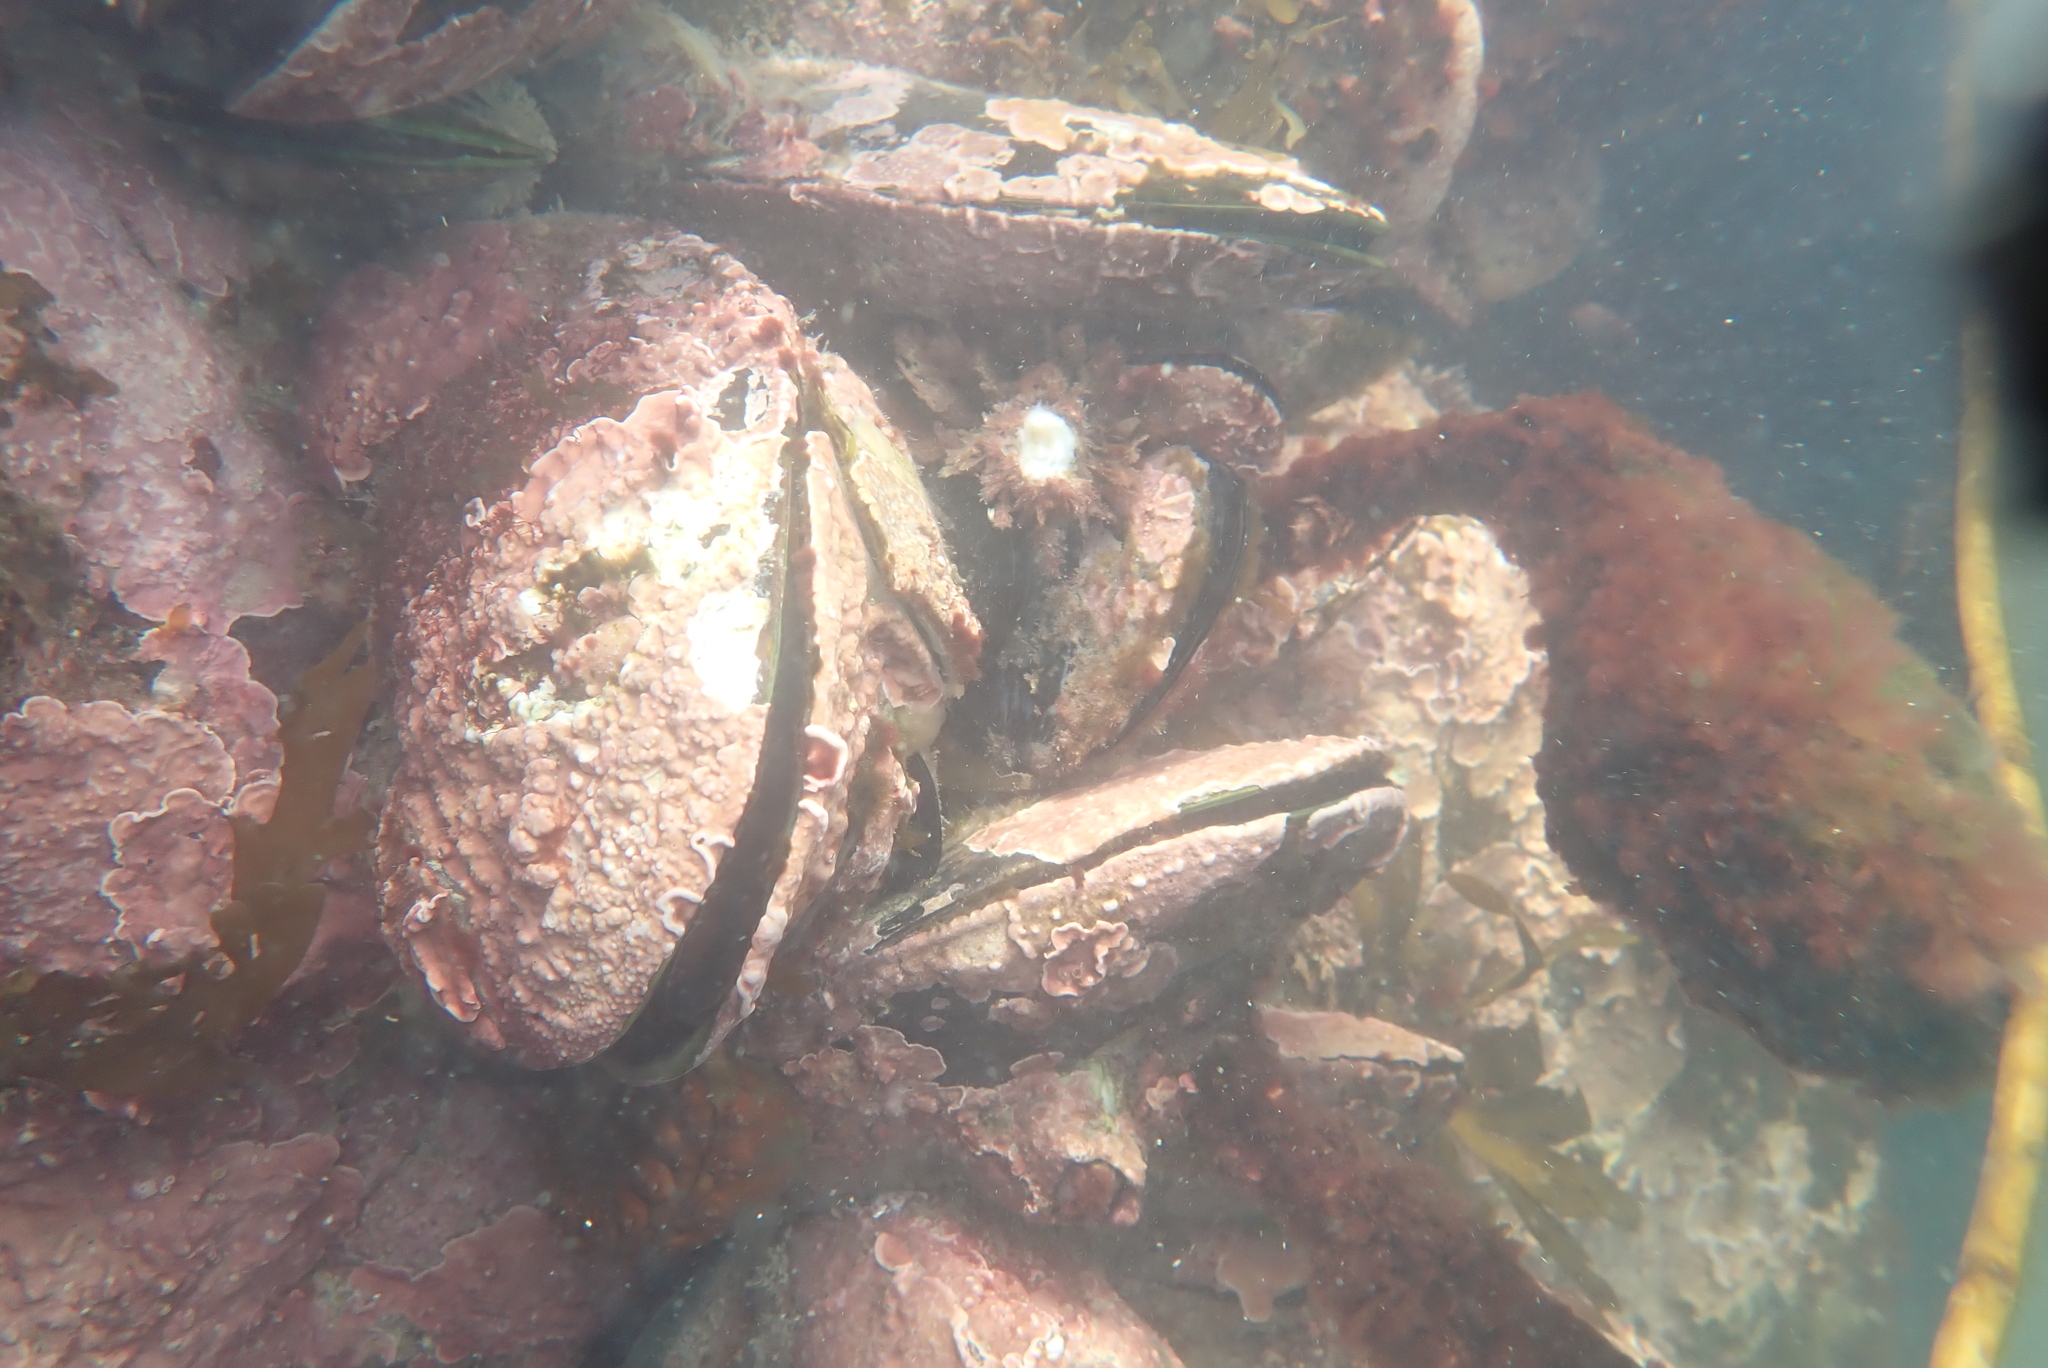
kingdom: Animalia
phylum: Mollusca
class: Bivalvia
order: Mytilida
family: Mytilidae
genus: Perna
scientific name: Perna canaliculus
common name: New zealand greenshelltm
